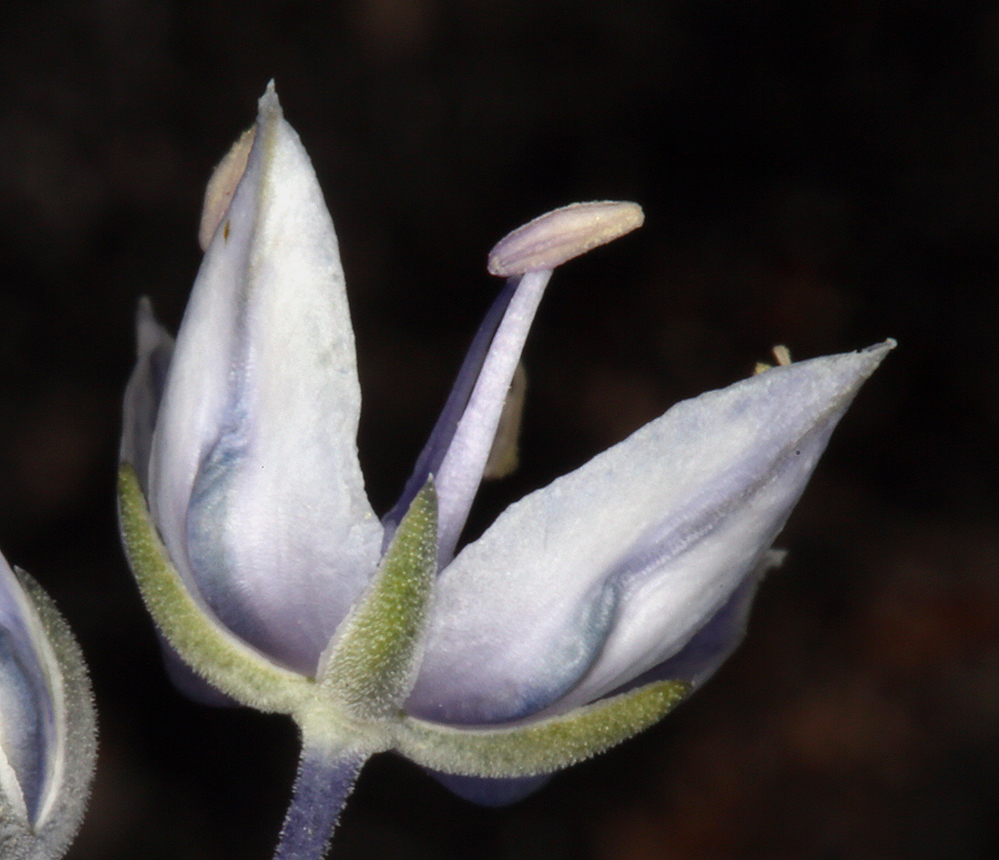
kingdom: Plantae
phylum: Tracheophyta
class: Magnoliopsida
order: Gentianales
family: Gentianaceae
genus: Frasera
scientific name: Frasera albicaulis
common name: Cusick's frasera
